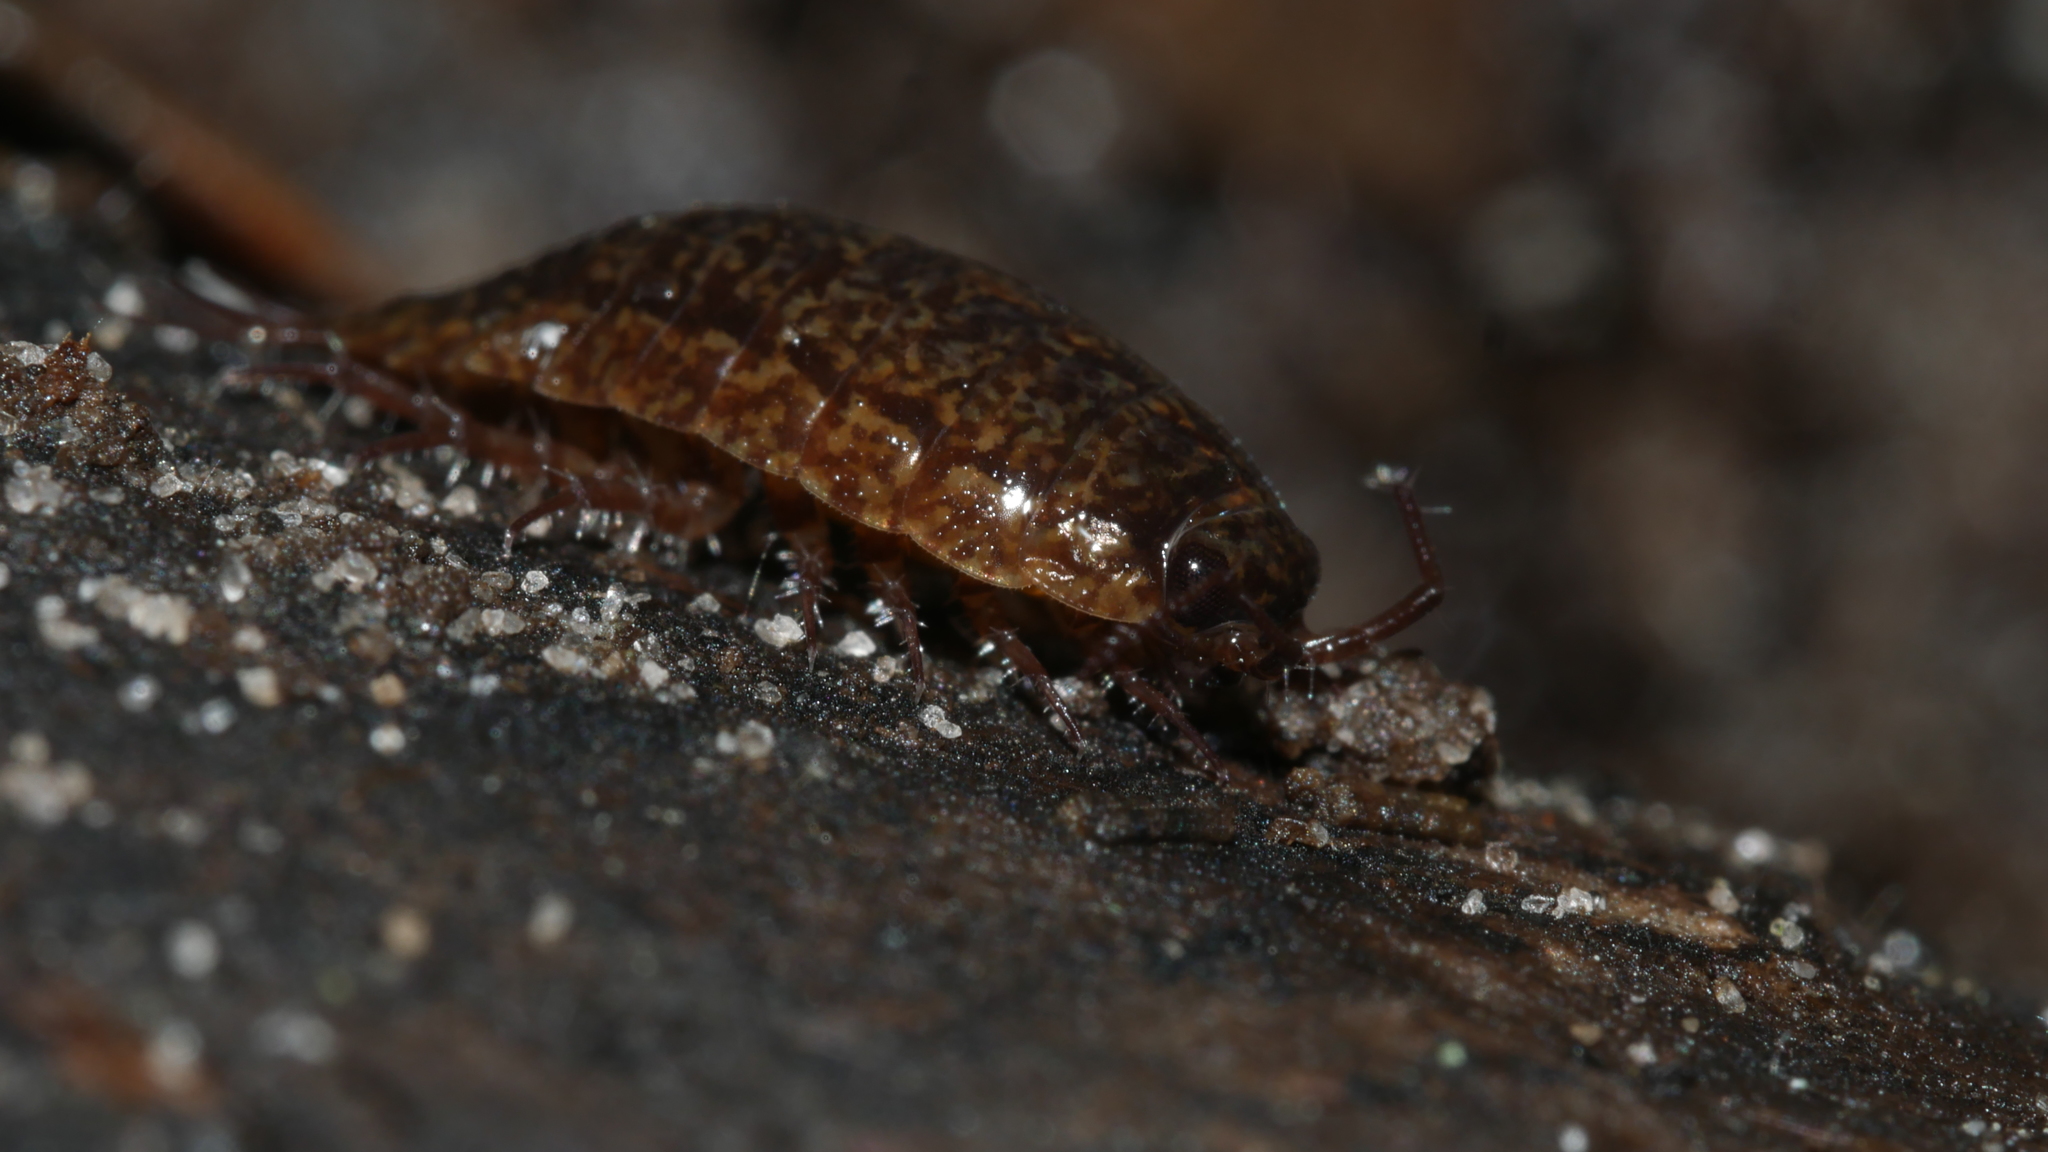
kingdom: Animalia
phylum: Arthropoda
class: Malacostraca
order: Isopoda
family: Ligiidae
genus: Ligidium
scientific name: Ligidium elrodii
